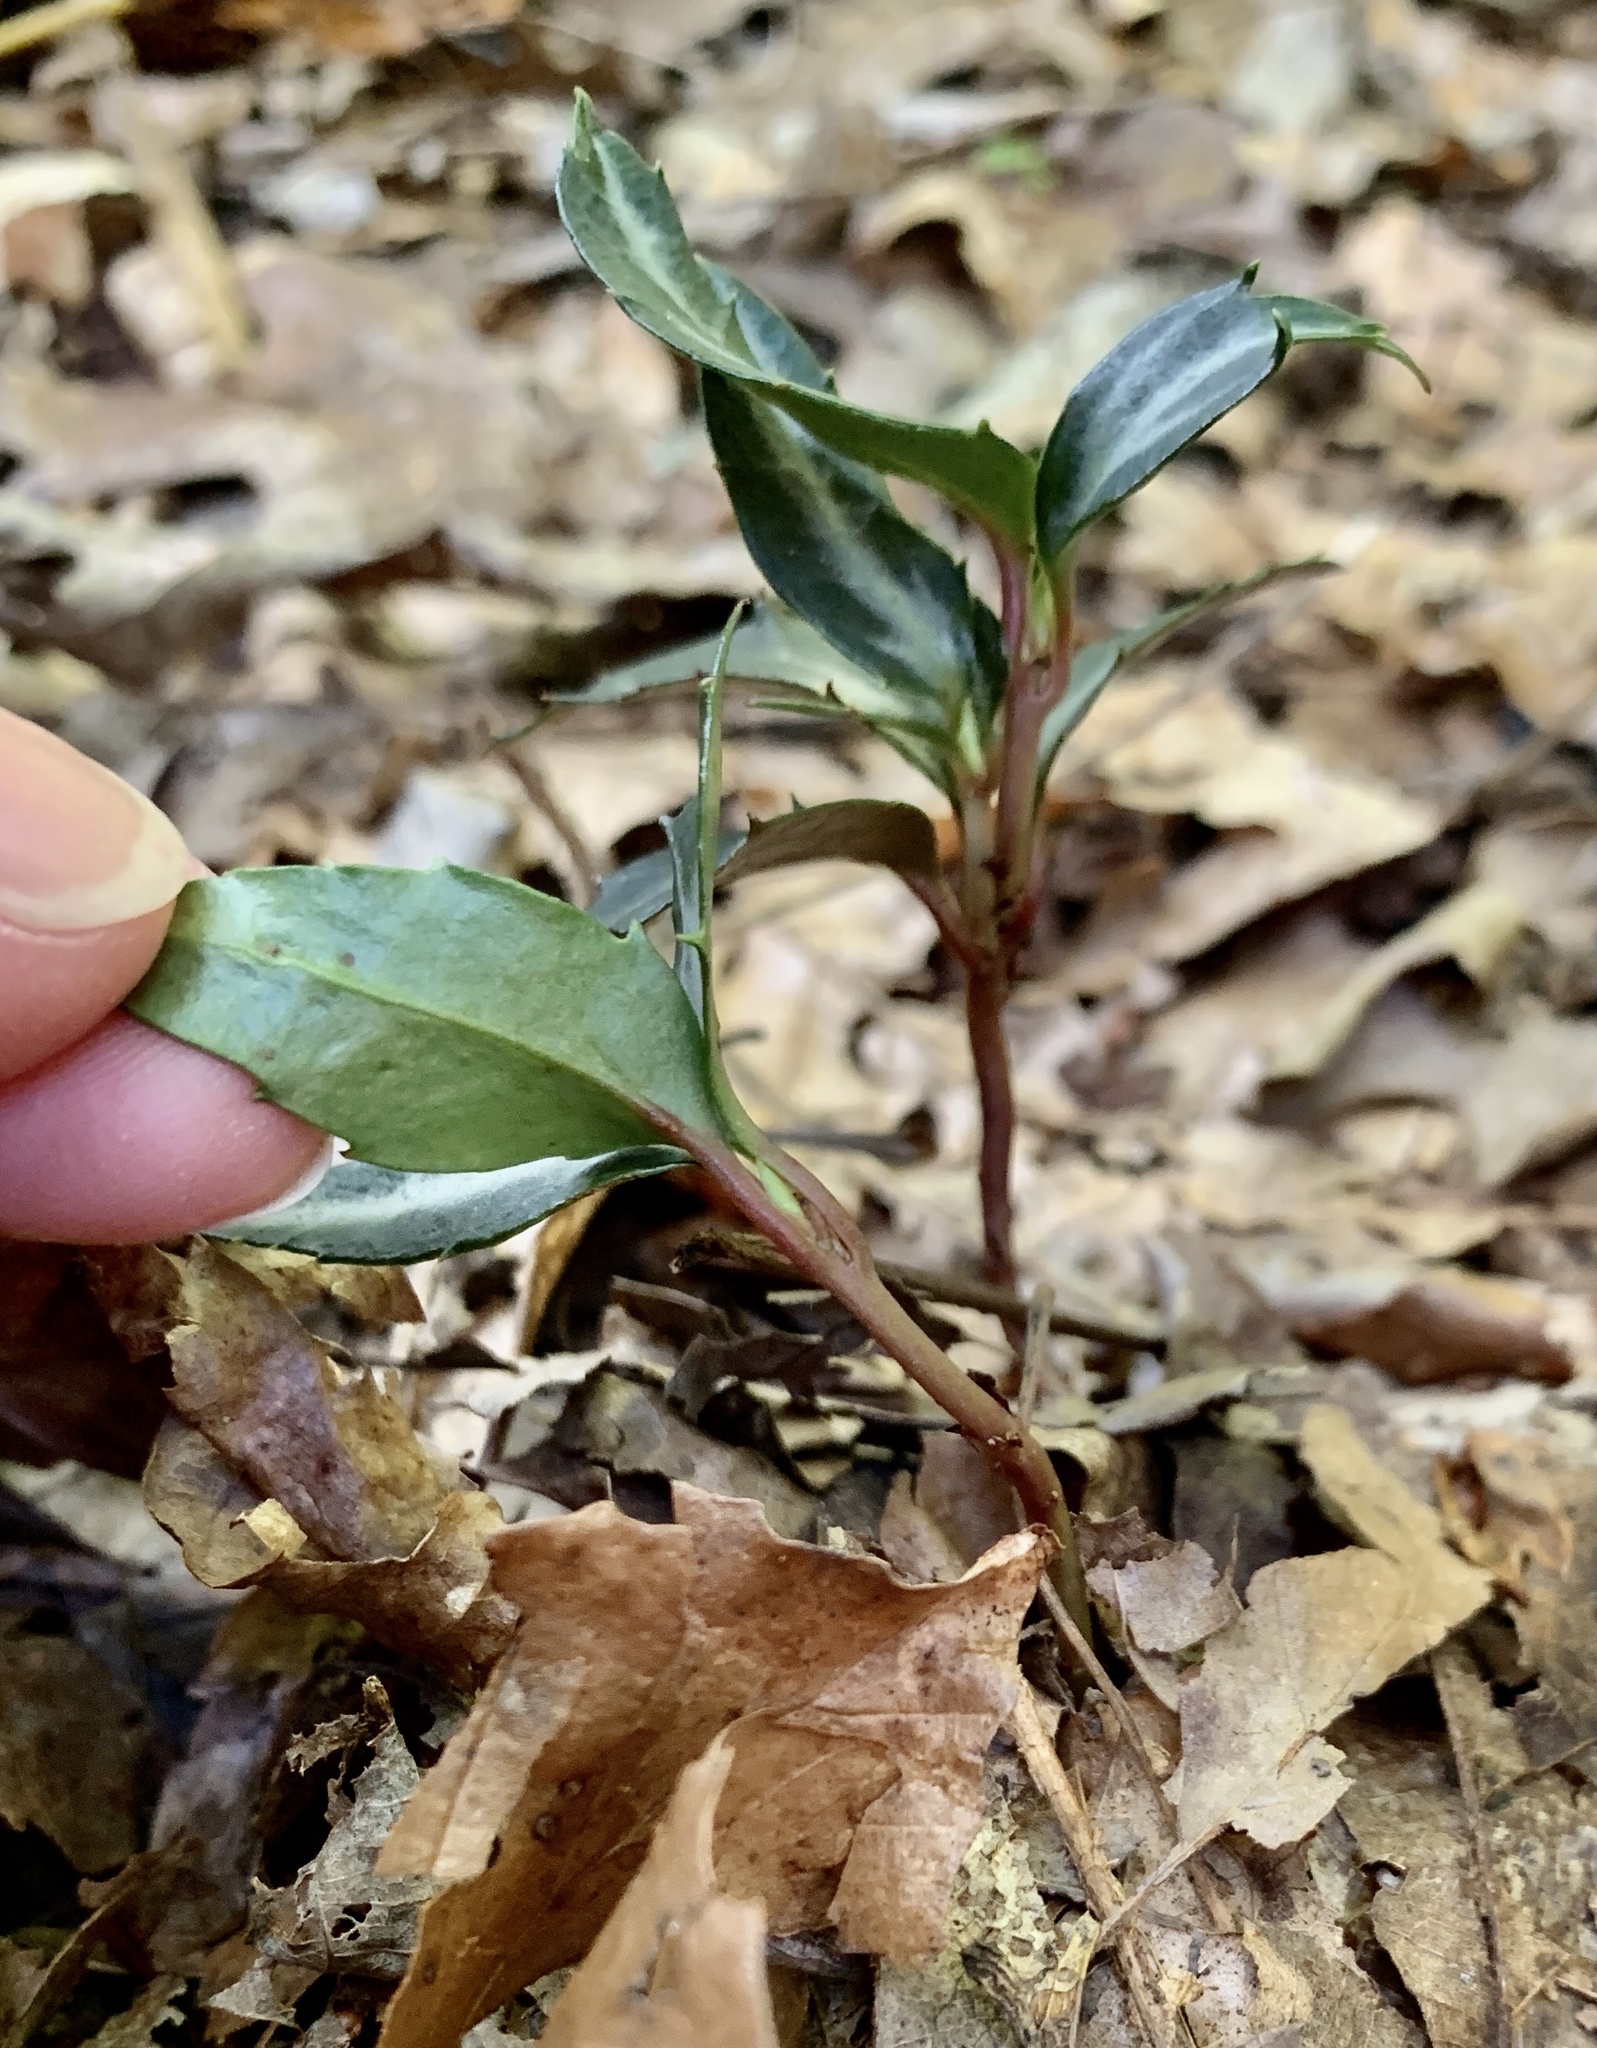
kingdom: Plantae
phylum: Tracheophyta
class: Magnoliopsida
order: Ericales
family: Ericaceae
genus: Chimaphila
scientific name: Chimaphila maculata
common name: Spotted pipsissewa
